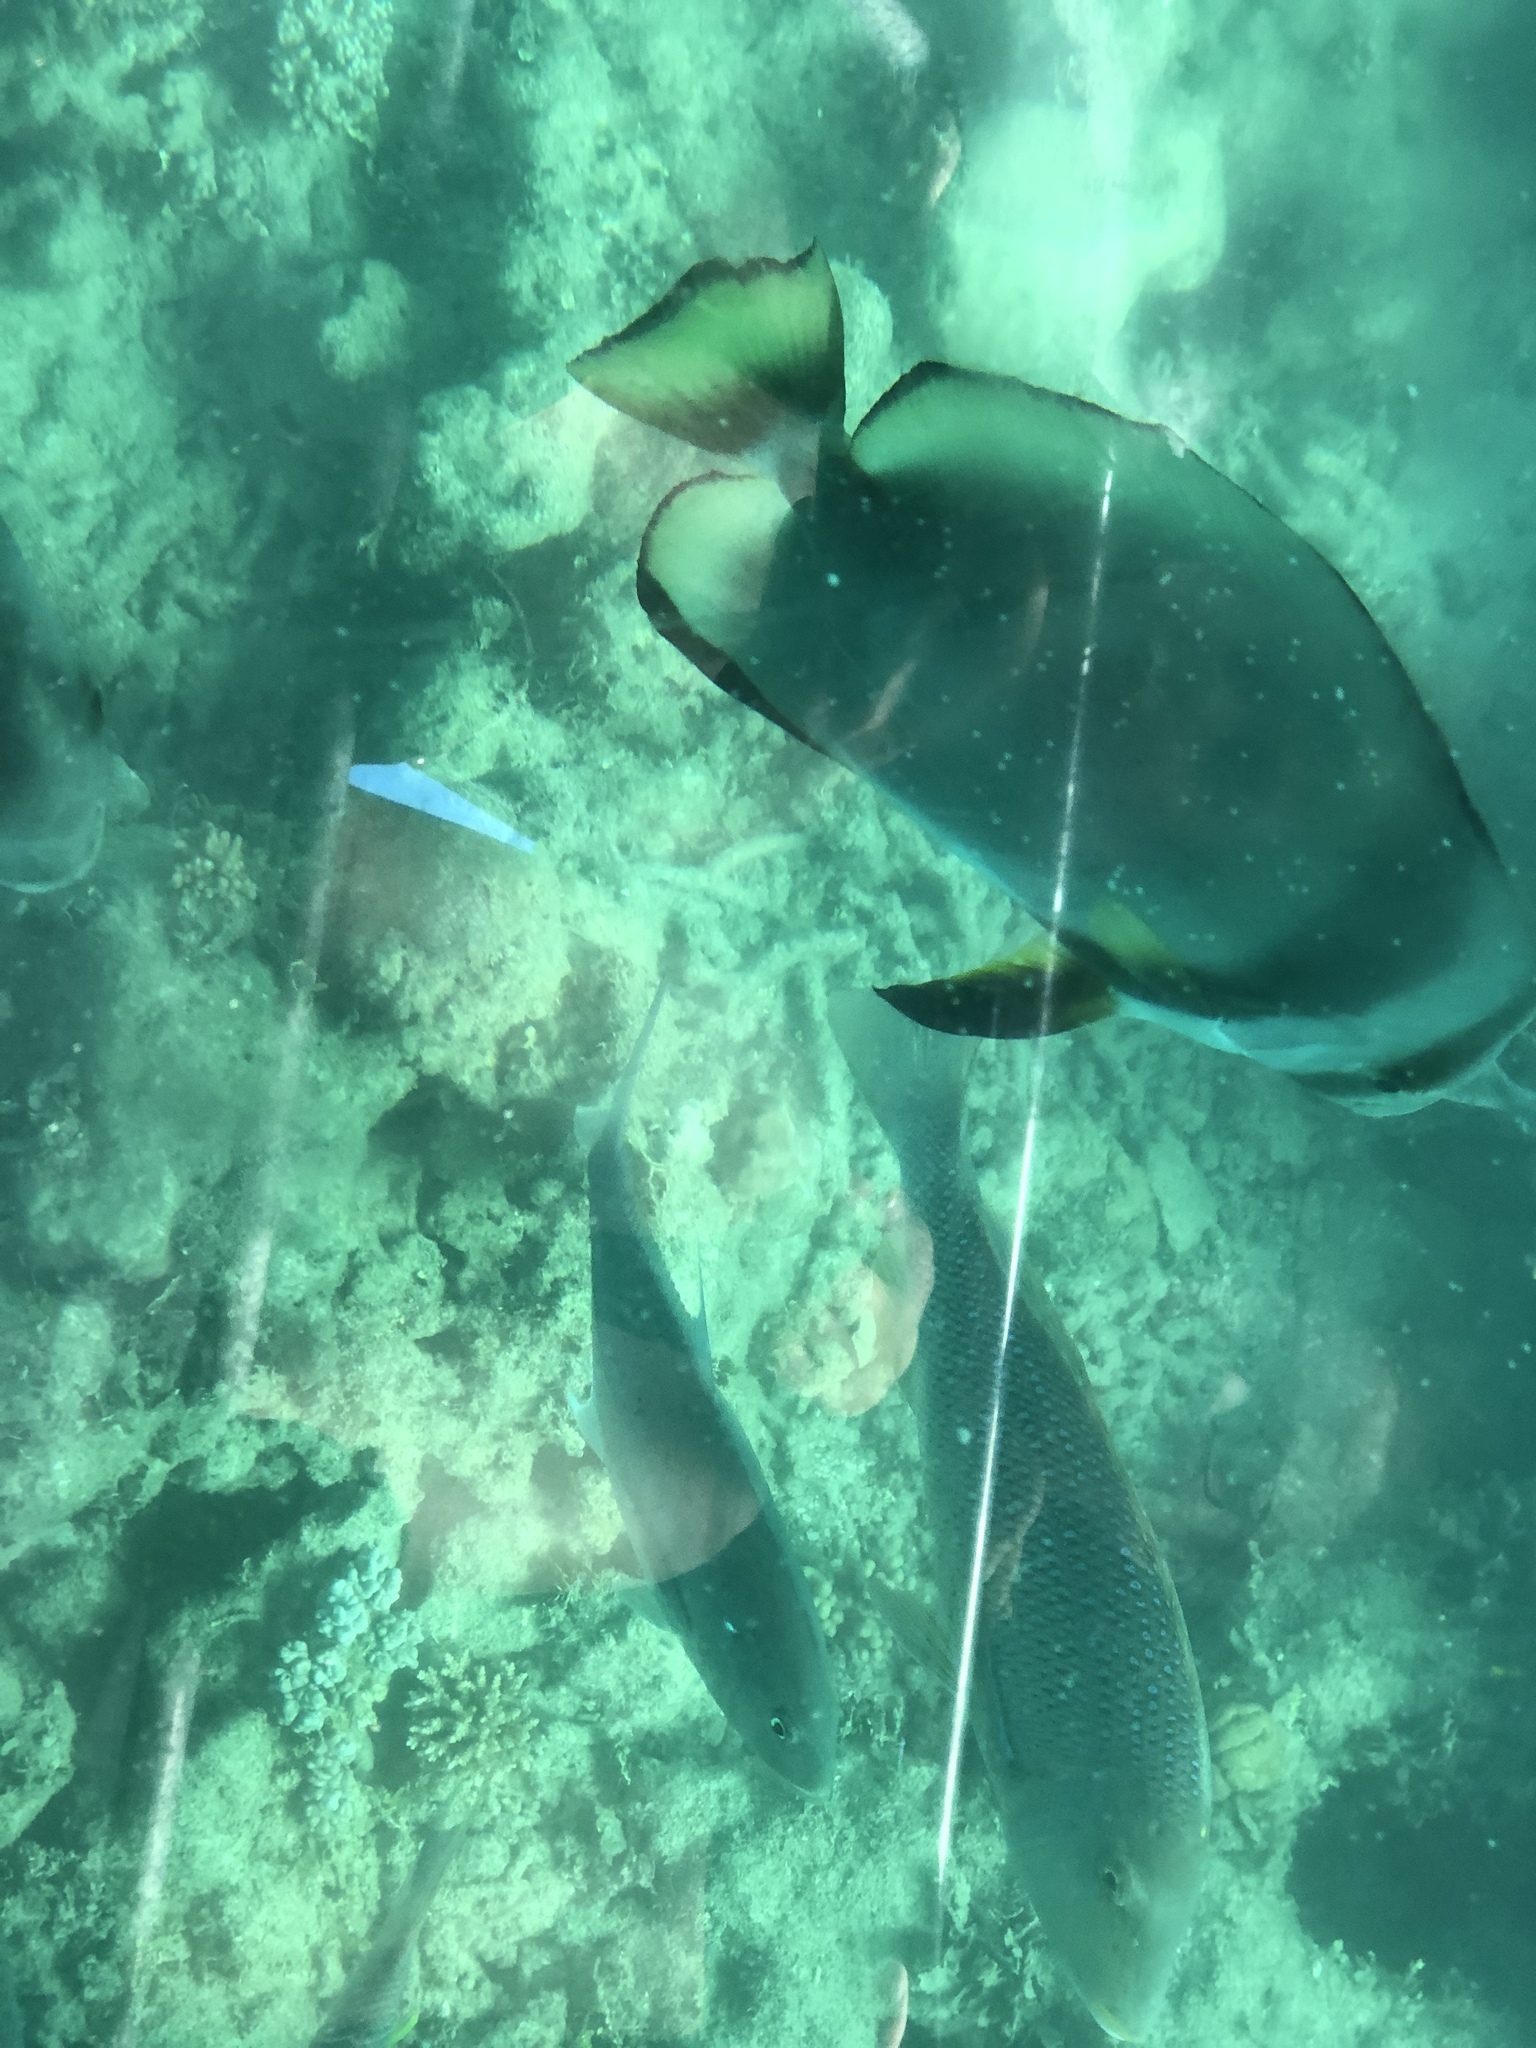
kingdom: Animalia
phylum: Chordata
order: Perciformes
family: Ephippidae
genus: Platax
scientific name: Platax orbicularis
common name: Batfish
